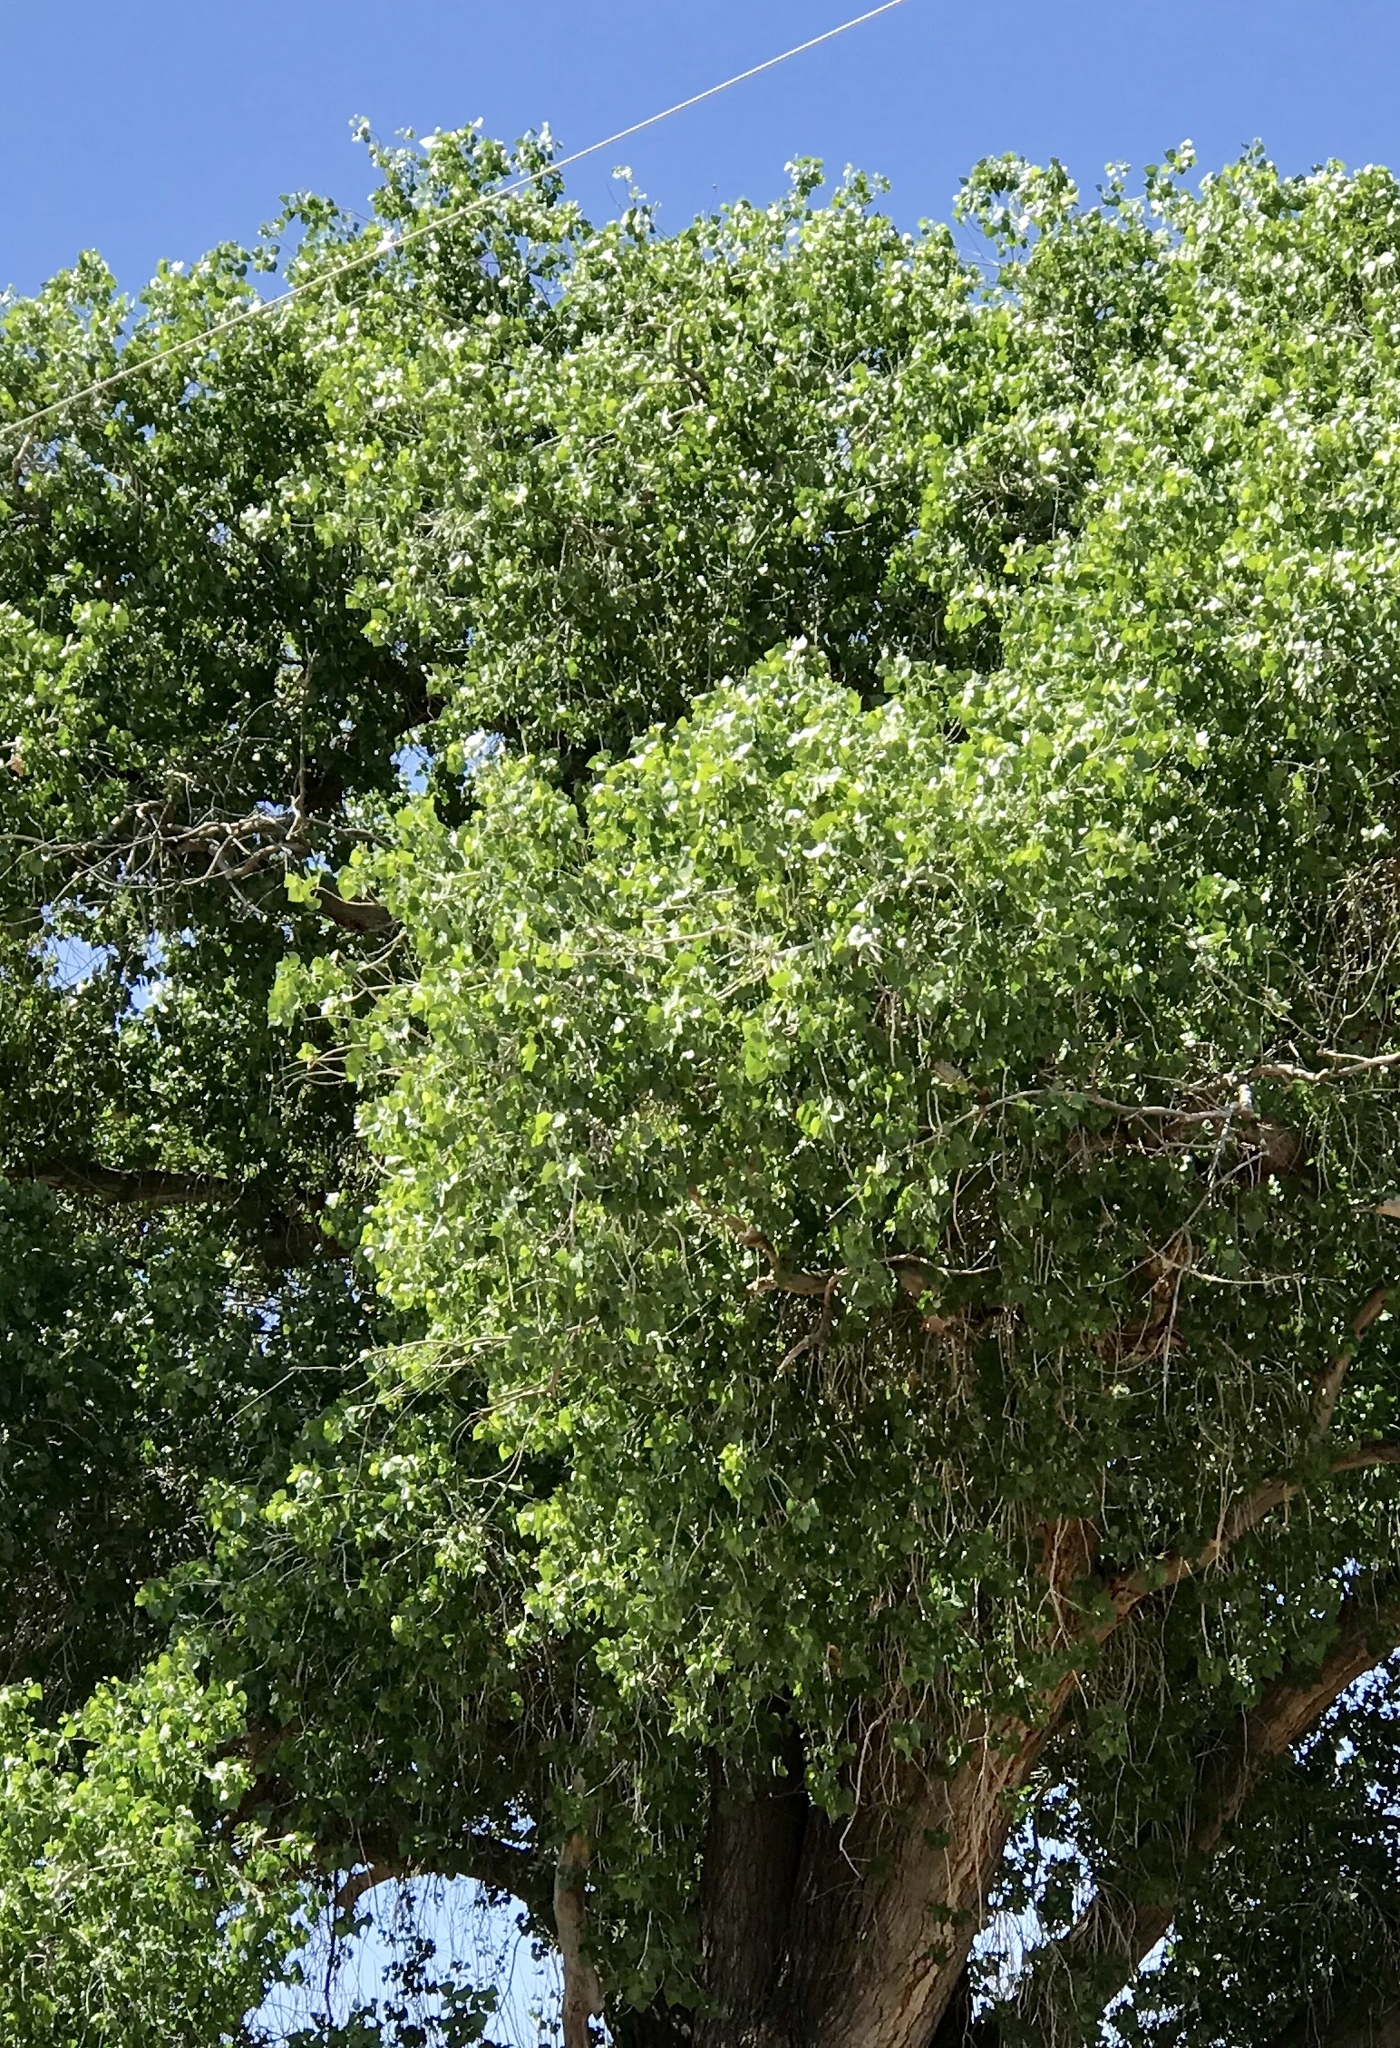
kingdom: Plantae
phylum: Tracheophyta
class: Magnoliopsida
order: Malpighiales
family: Salicaceae
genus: Populus
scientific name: Populus fremontii
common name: Fremont's cottonwood
